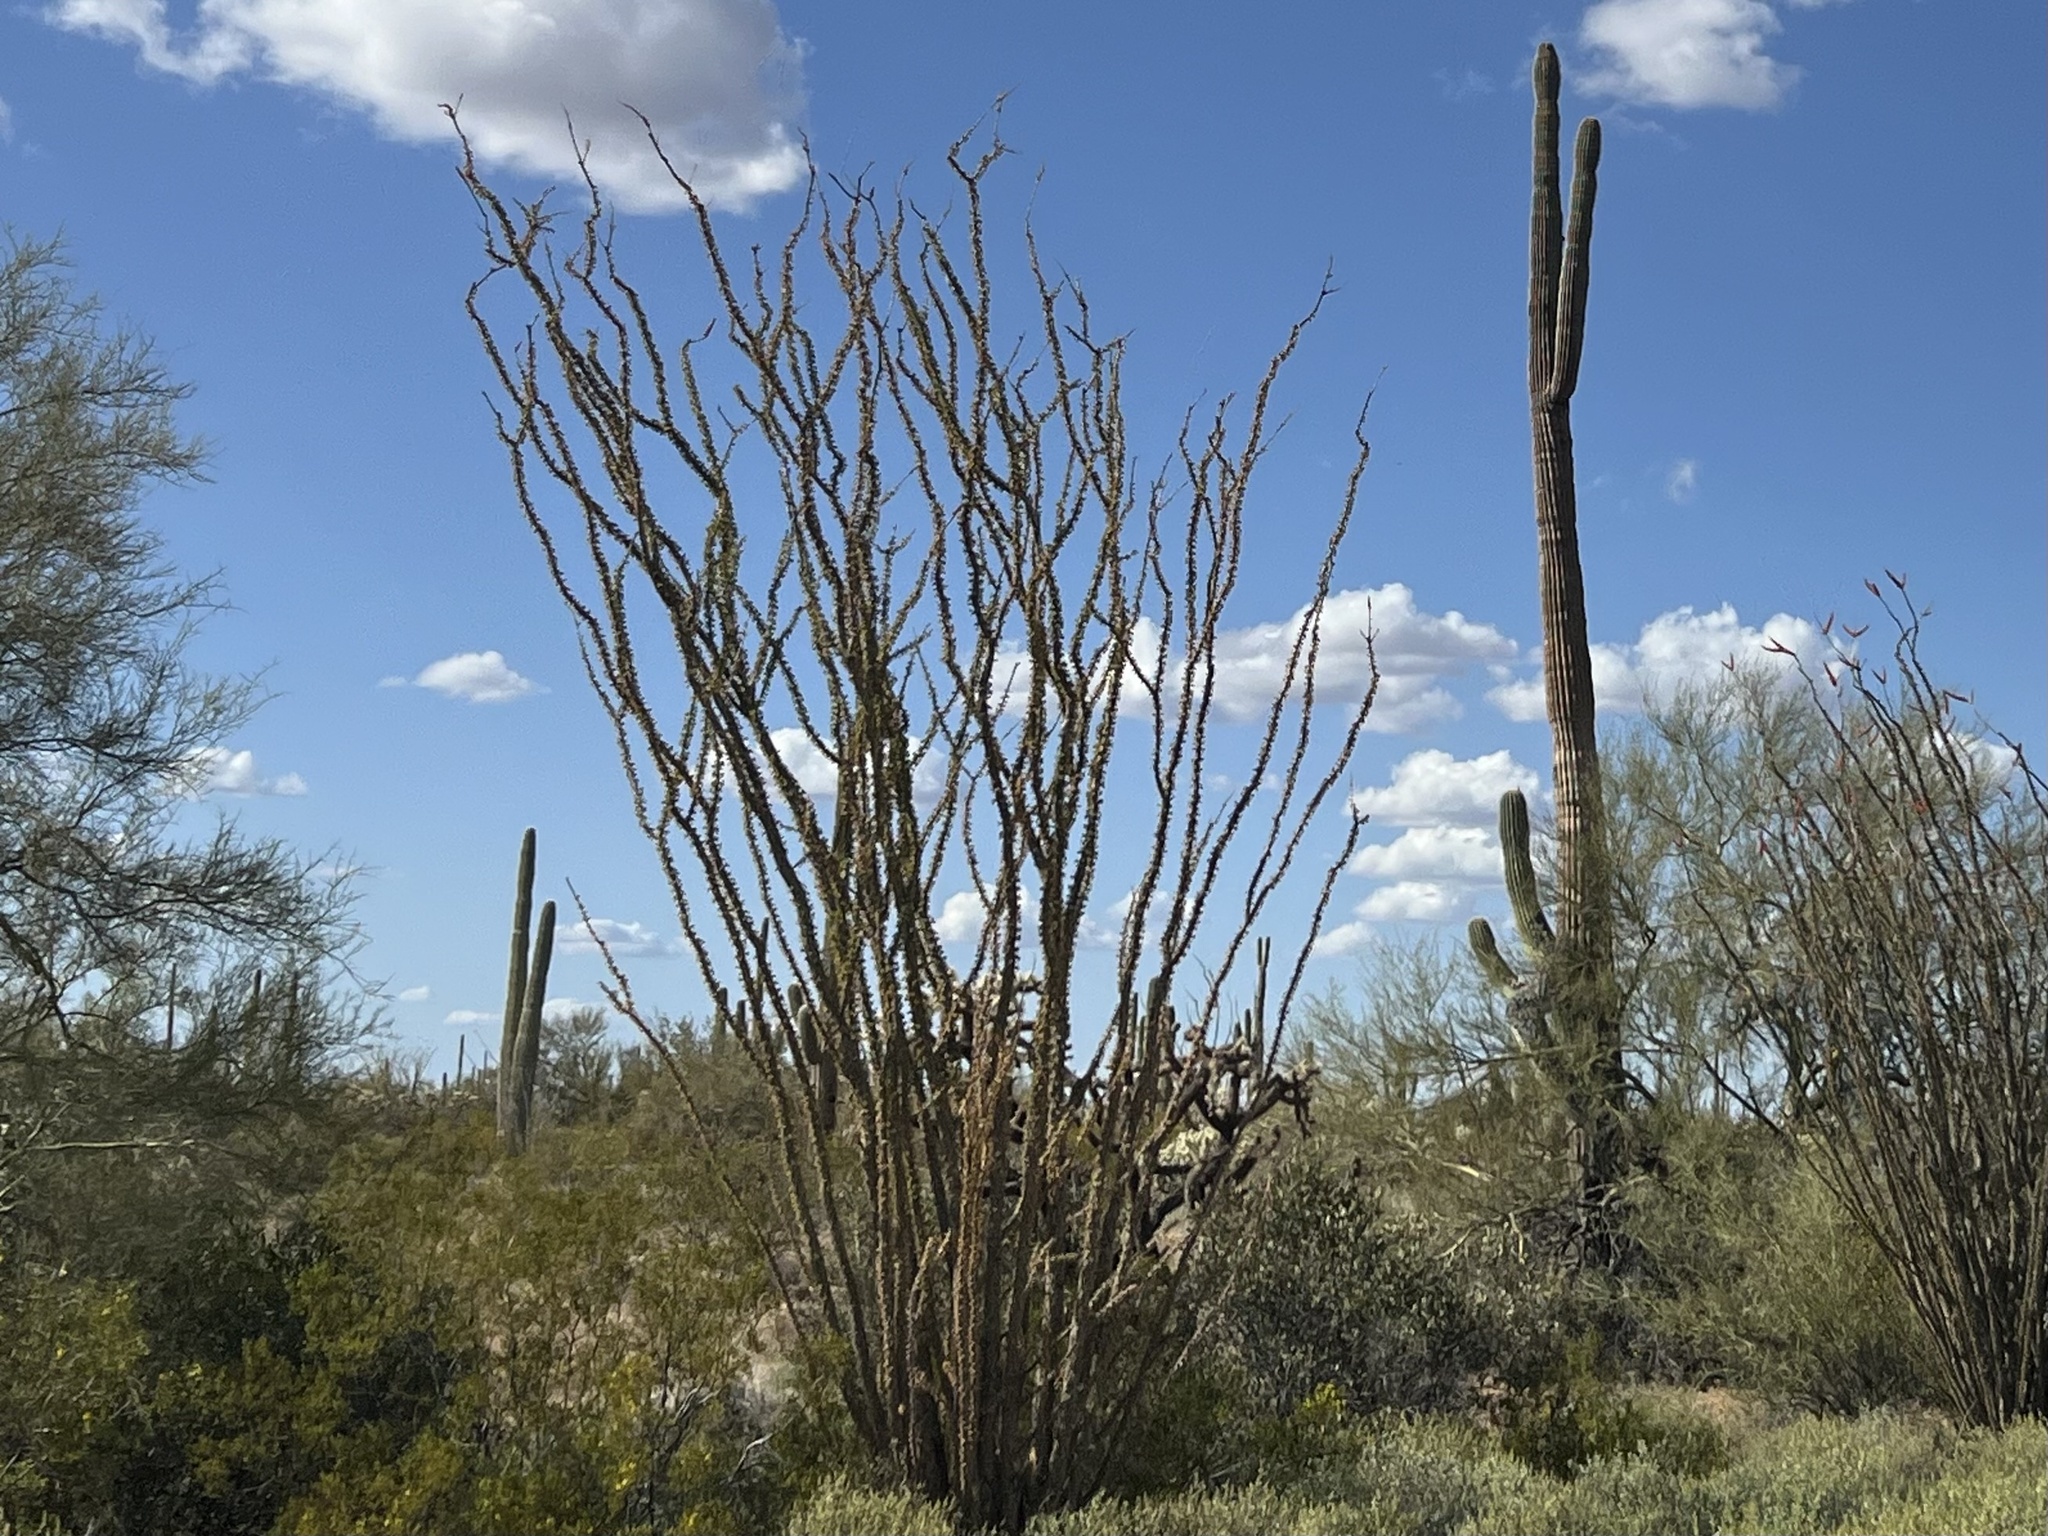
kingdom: Plantae
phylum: Tracheophyta
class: Magnoliopsida
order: Ericales
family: Fouquieriaceae
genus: Fouquieria
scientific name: Fouquieria splendens
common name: Vine-cactus
